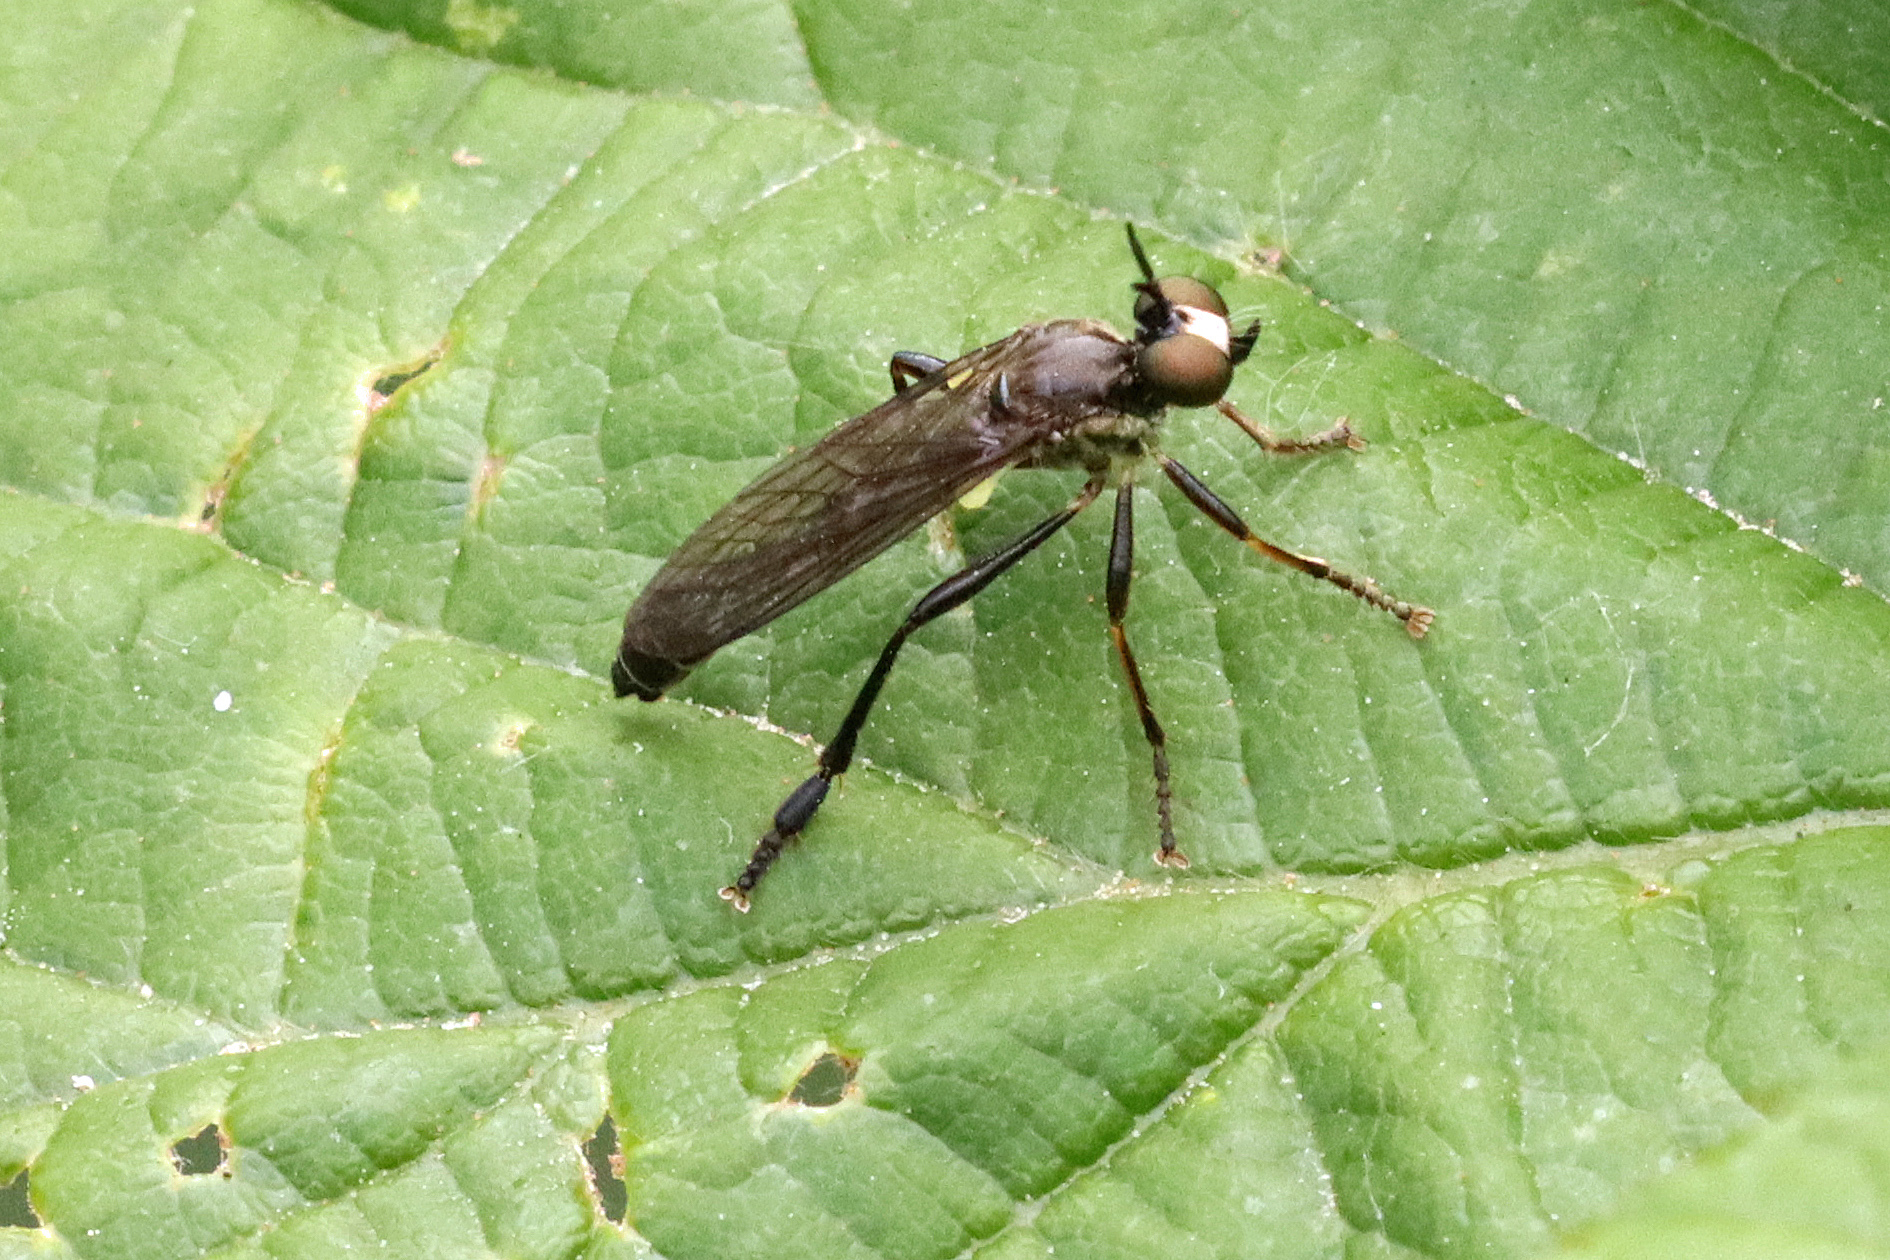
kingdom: Animalia
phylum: Arthropoda
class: Insecta
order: Diptera
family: Asilidae
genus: Dioctria
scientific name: Dioctria hyalipennis
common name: Stripe-legged robberfly
